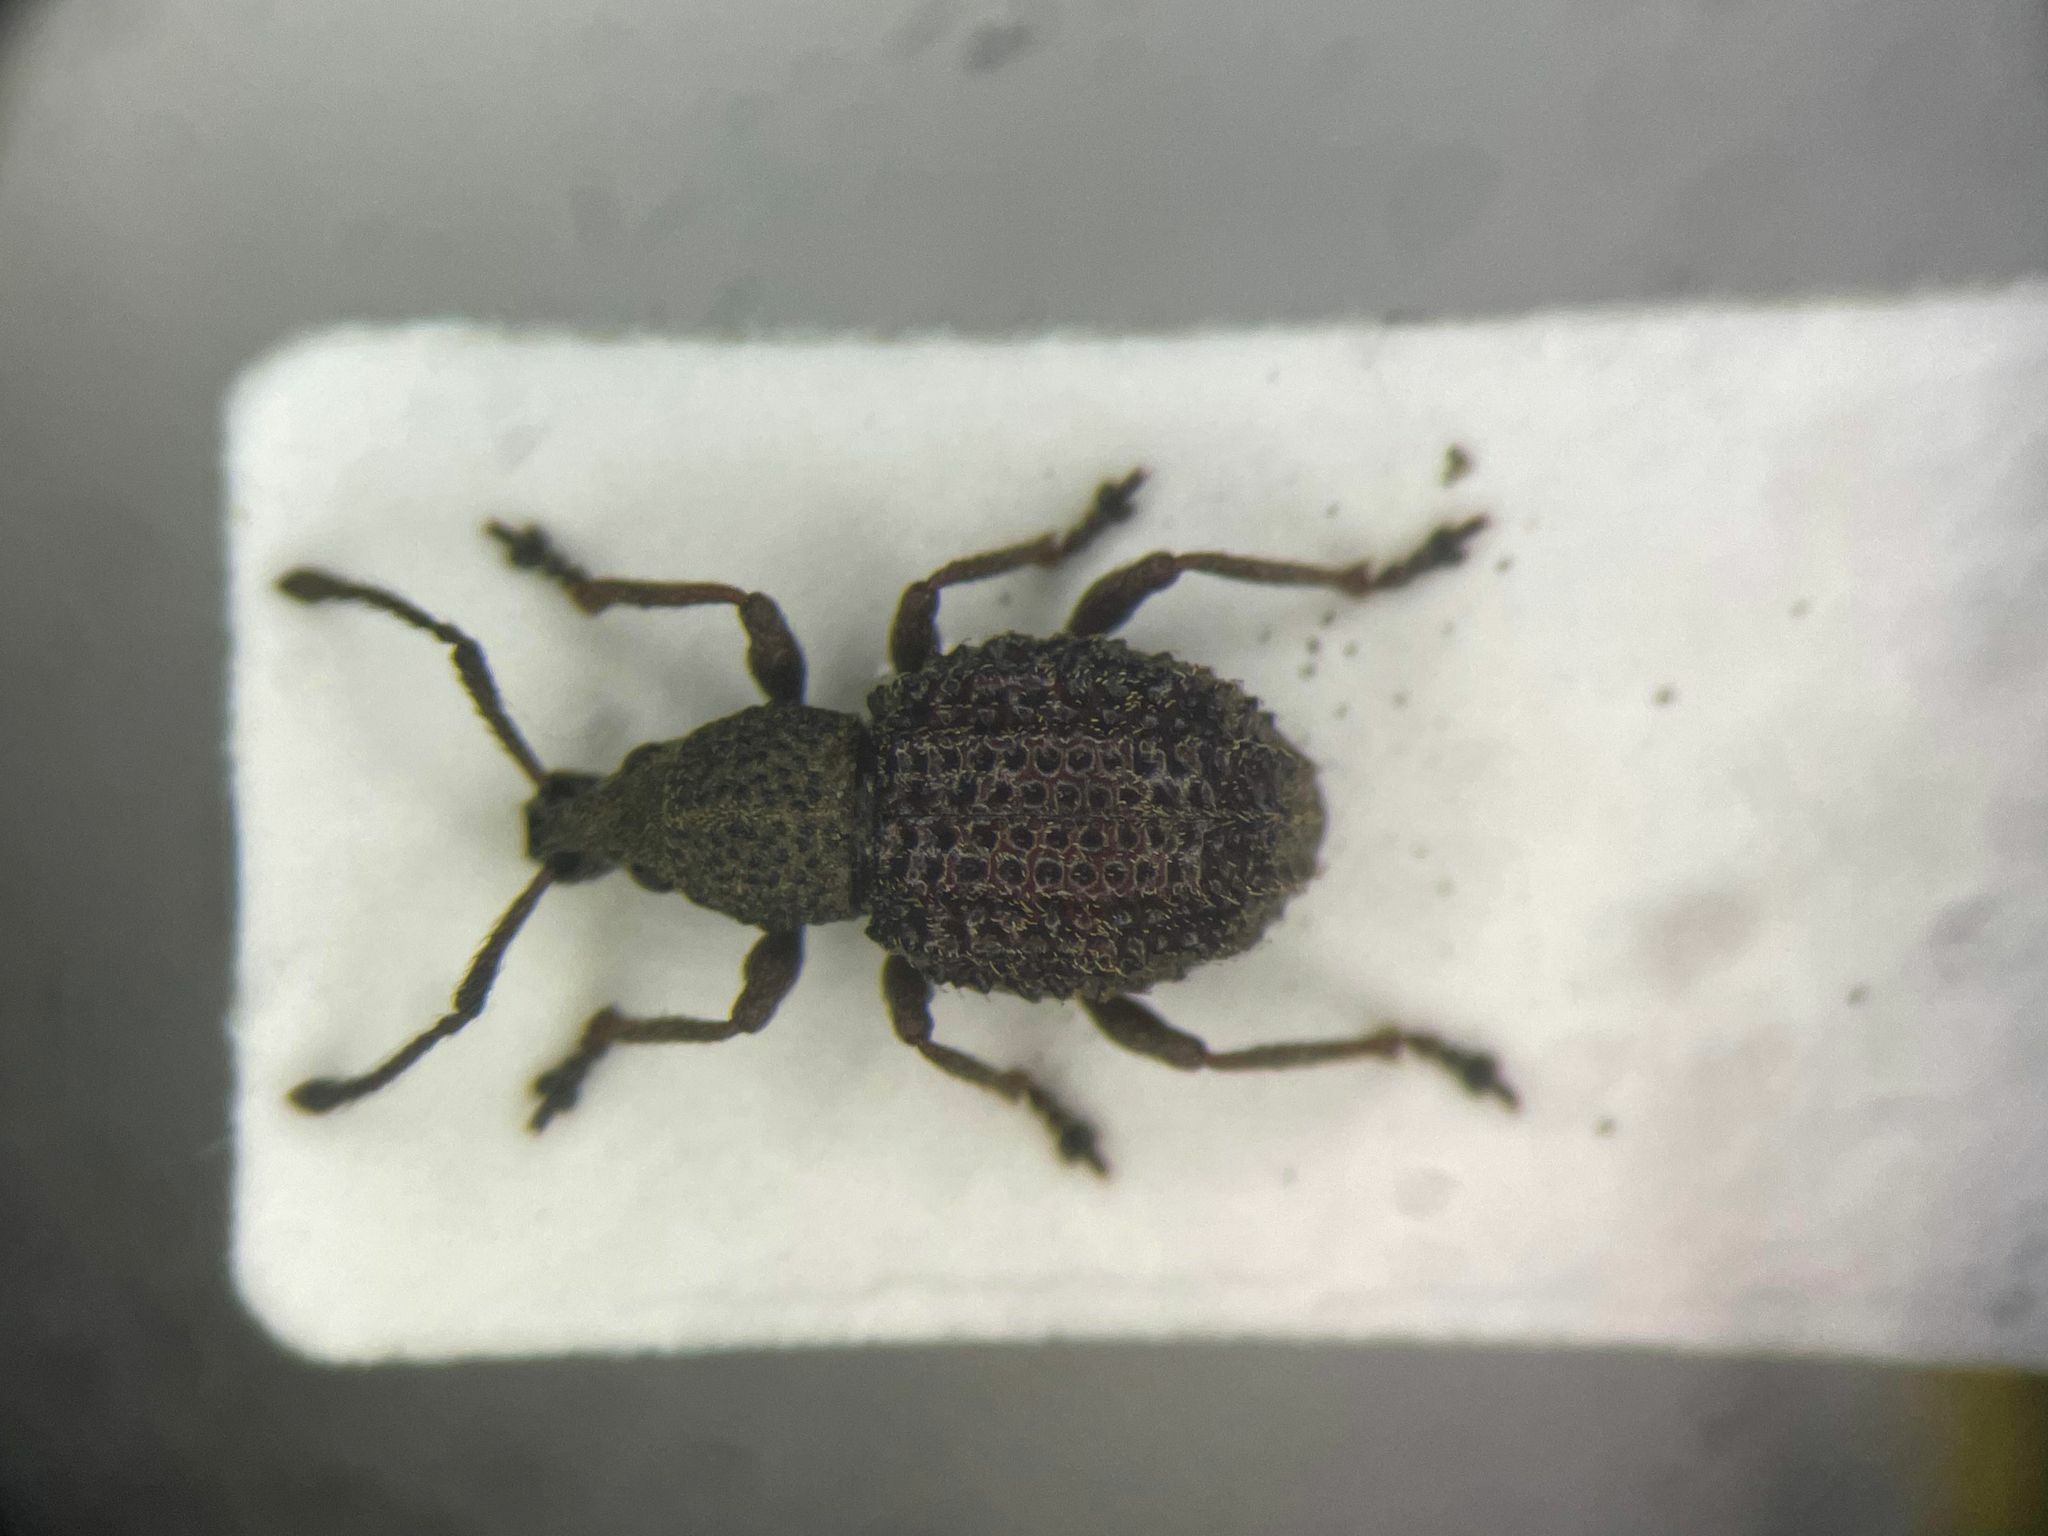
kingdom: Animalia
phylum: Arthropoda
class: Insecta
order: Coleoptera
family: Curculionidae
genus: Otiorhynchus
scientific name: Otiorhynchus porcatus
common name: Weevil
